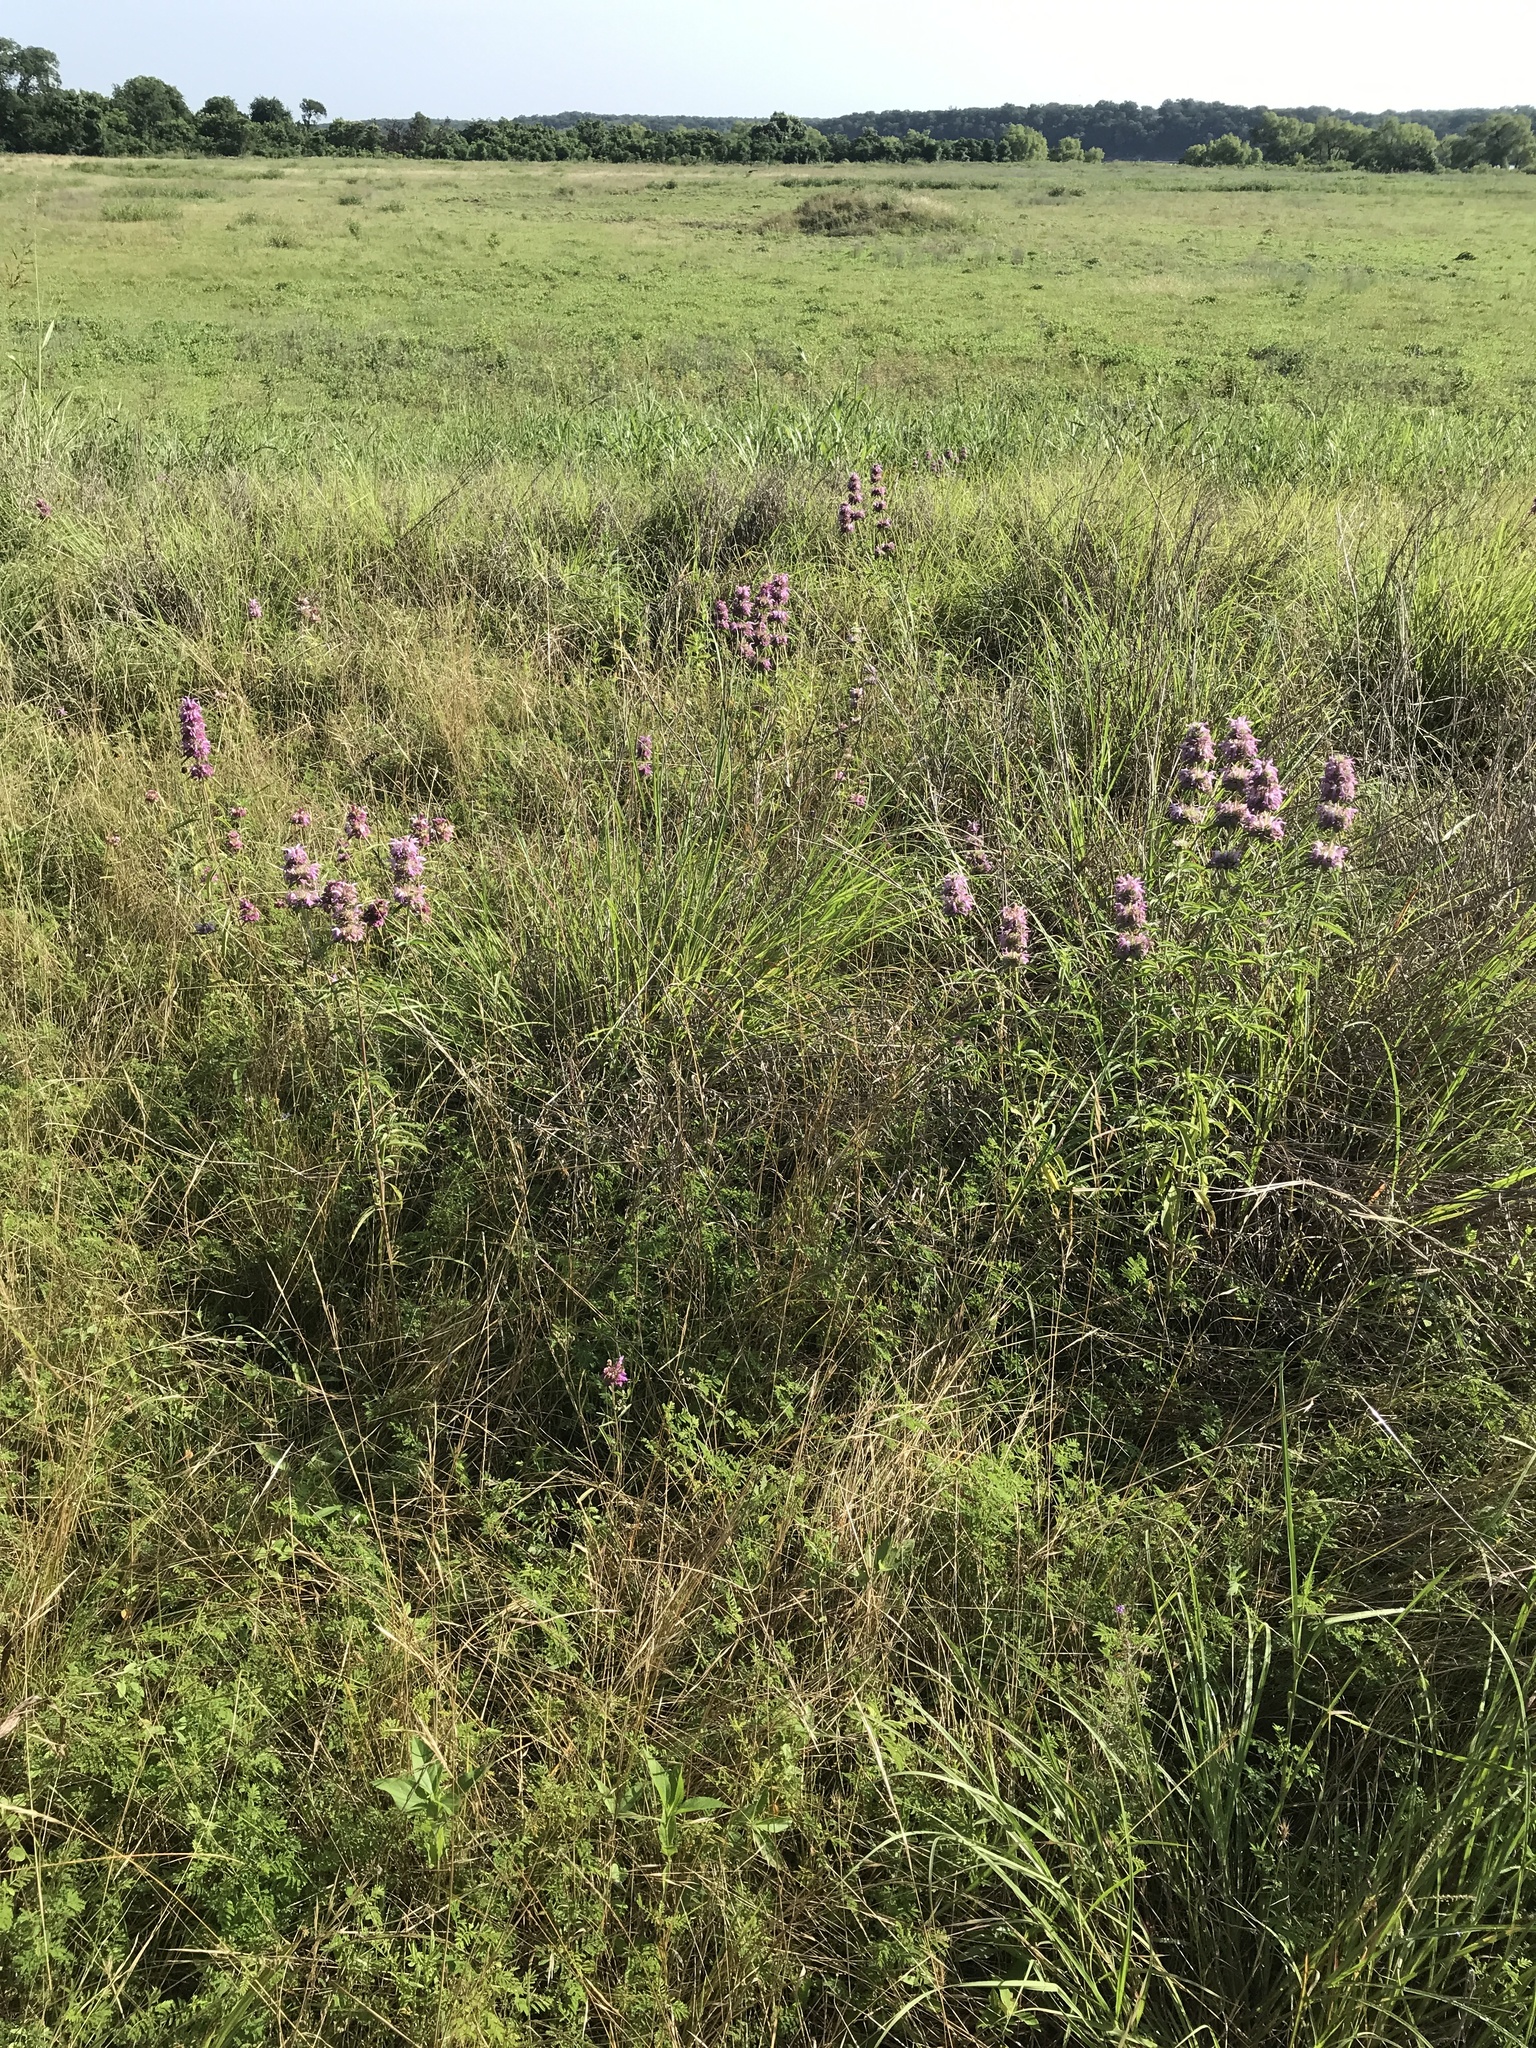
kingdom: Plantae
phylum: Tracheophyta
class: Magnoliopsida
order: Lamiales
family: Lamiaceae
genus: Monarda
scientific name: Monarda citriodora
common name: Lemon beebalm
